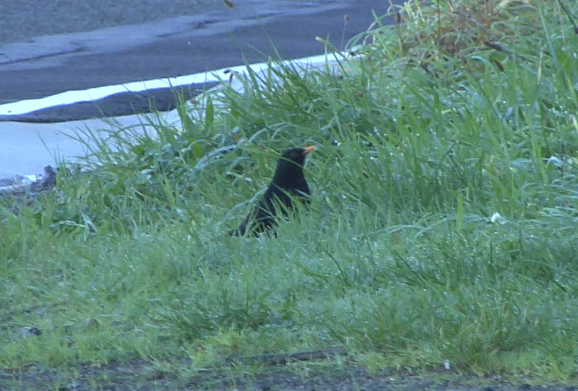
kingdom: Animalia
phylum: Chordata
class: Aves
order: Passeriformes
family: Turdidae
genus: Turdus
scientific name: Turdus merula
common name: Common blackbird
